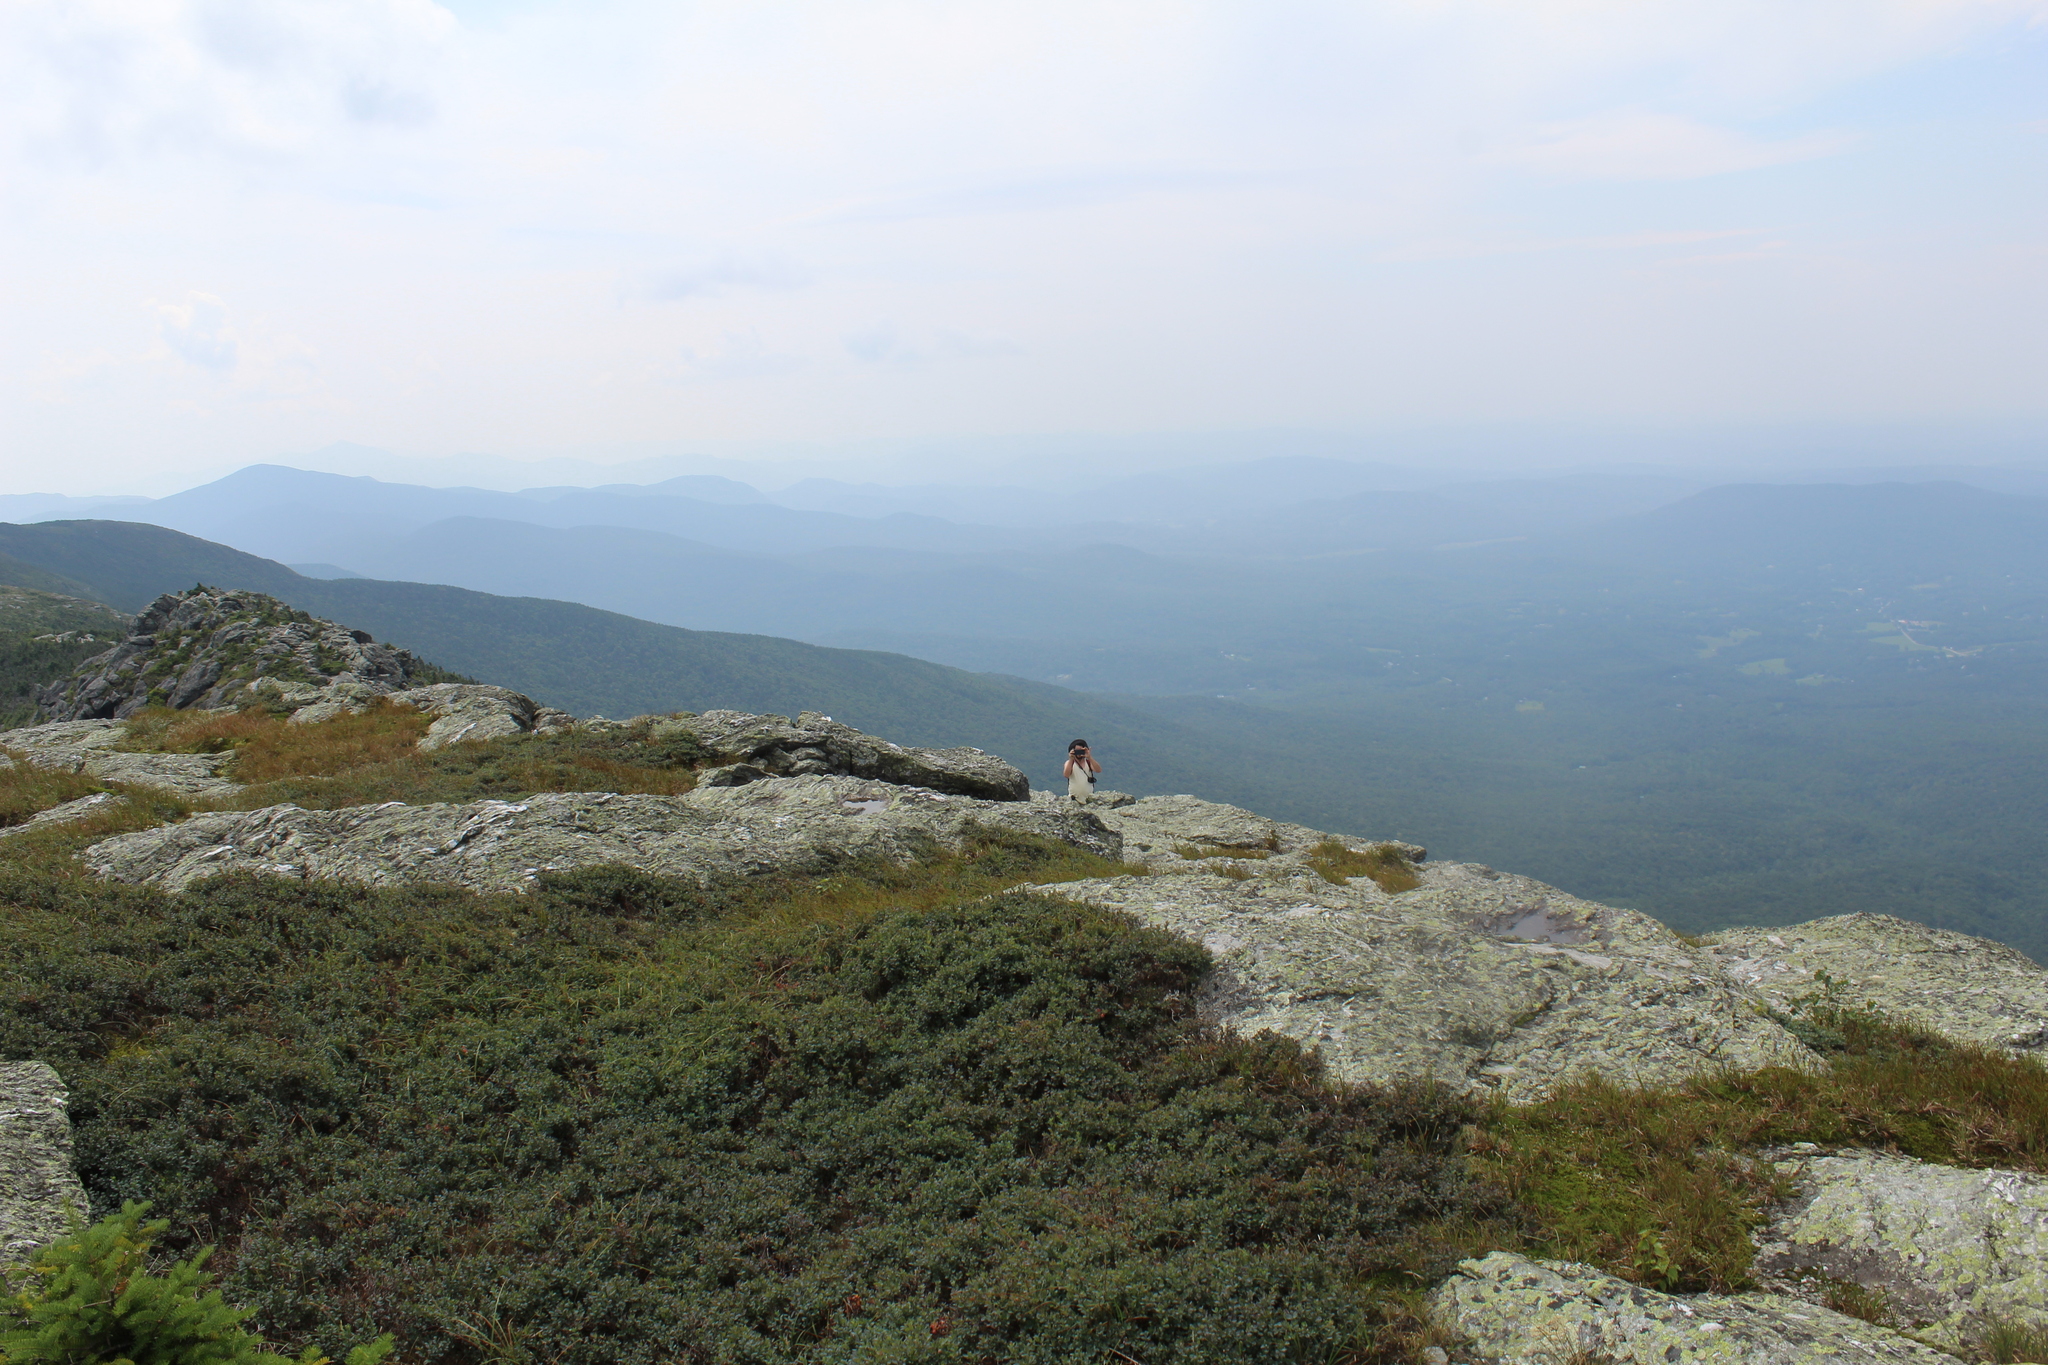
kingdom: Plantae
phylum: Tracheophyta
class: Magnoliopsida
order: Ericales
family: Ericaceae
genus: Vaccinium
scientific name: Vaccinium uliginosum
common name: Bog bilberry
